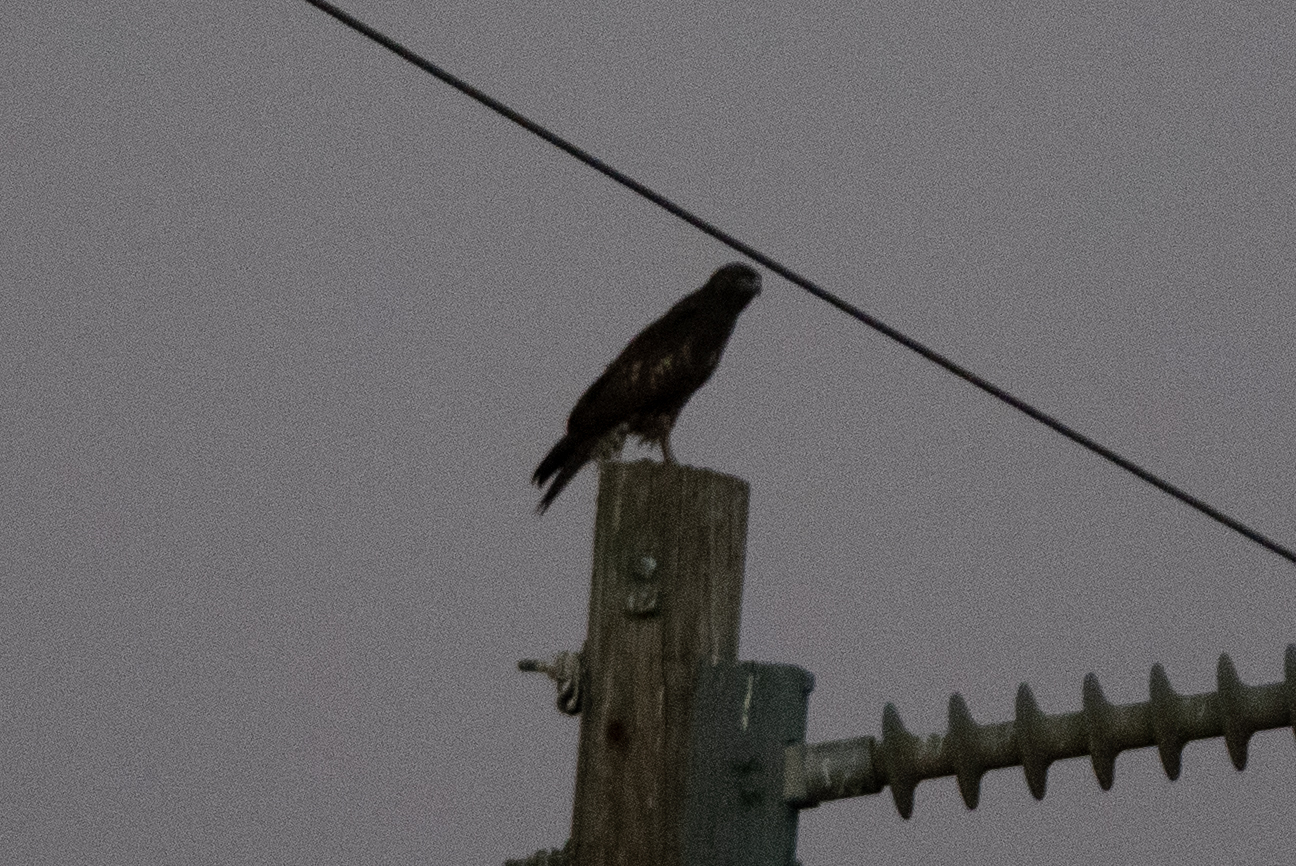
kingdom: Animalia
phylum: Chordata
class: Aves
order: Accipitriformes
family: Accipitridae
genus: Buteo
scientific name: Buteo jamaicensis
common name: Red-tailed hawk
